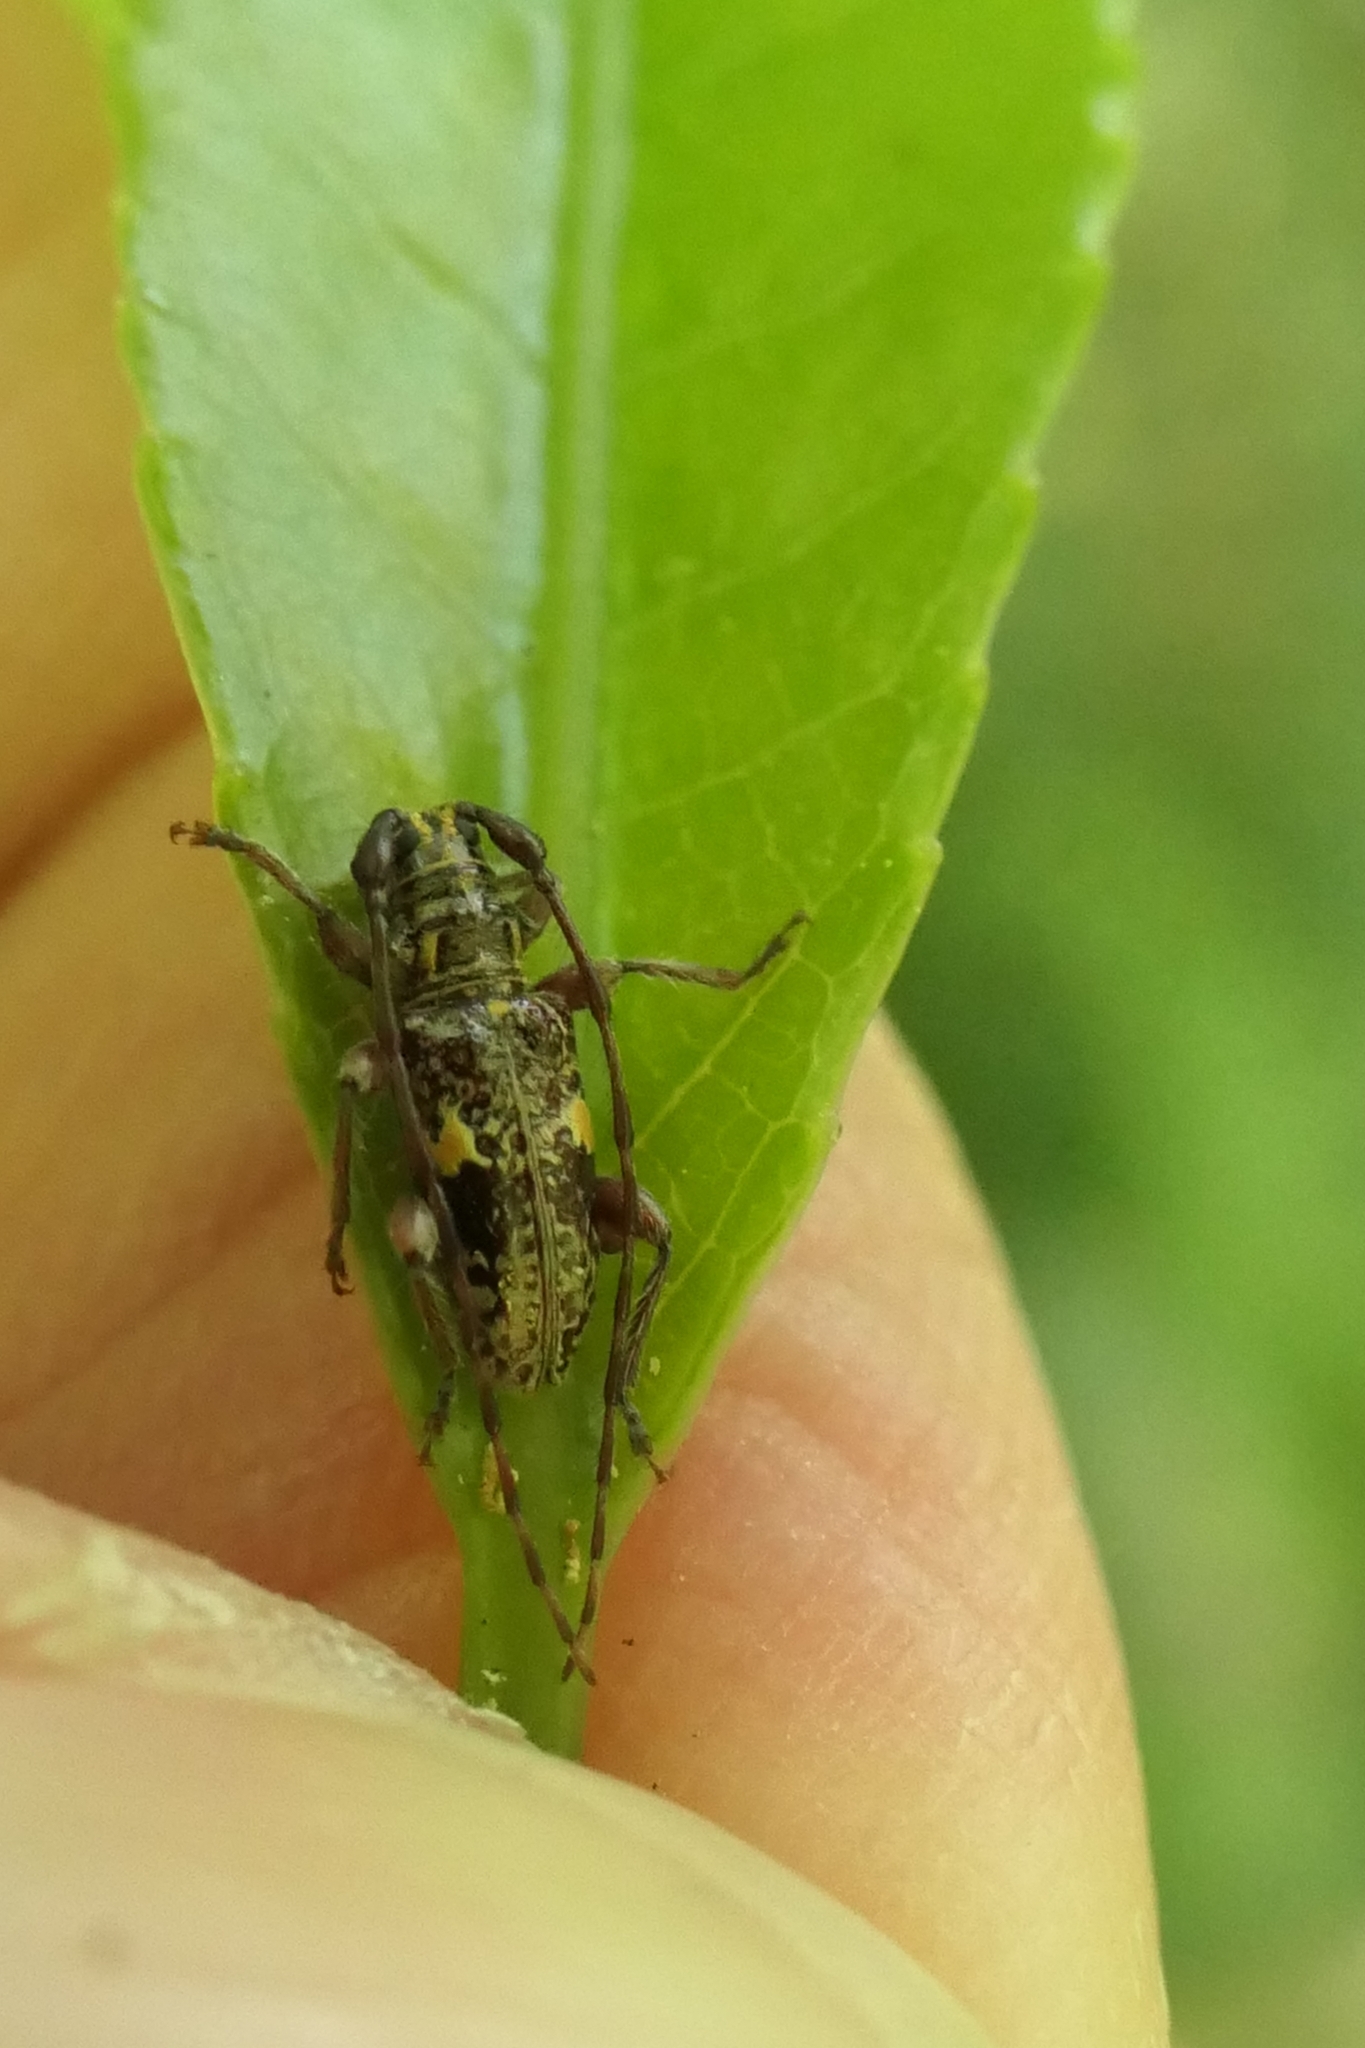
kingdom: Animalia
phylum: Arthropoda
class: Insecta
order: Coleoptera
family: Cerambycidae
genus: Hybolasius
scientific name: Hybolasius
